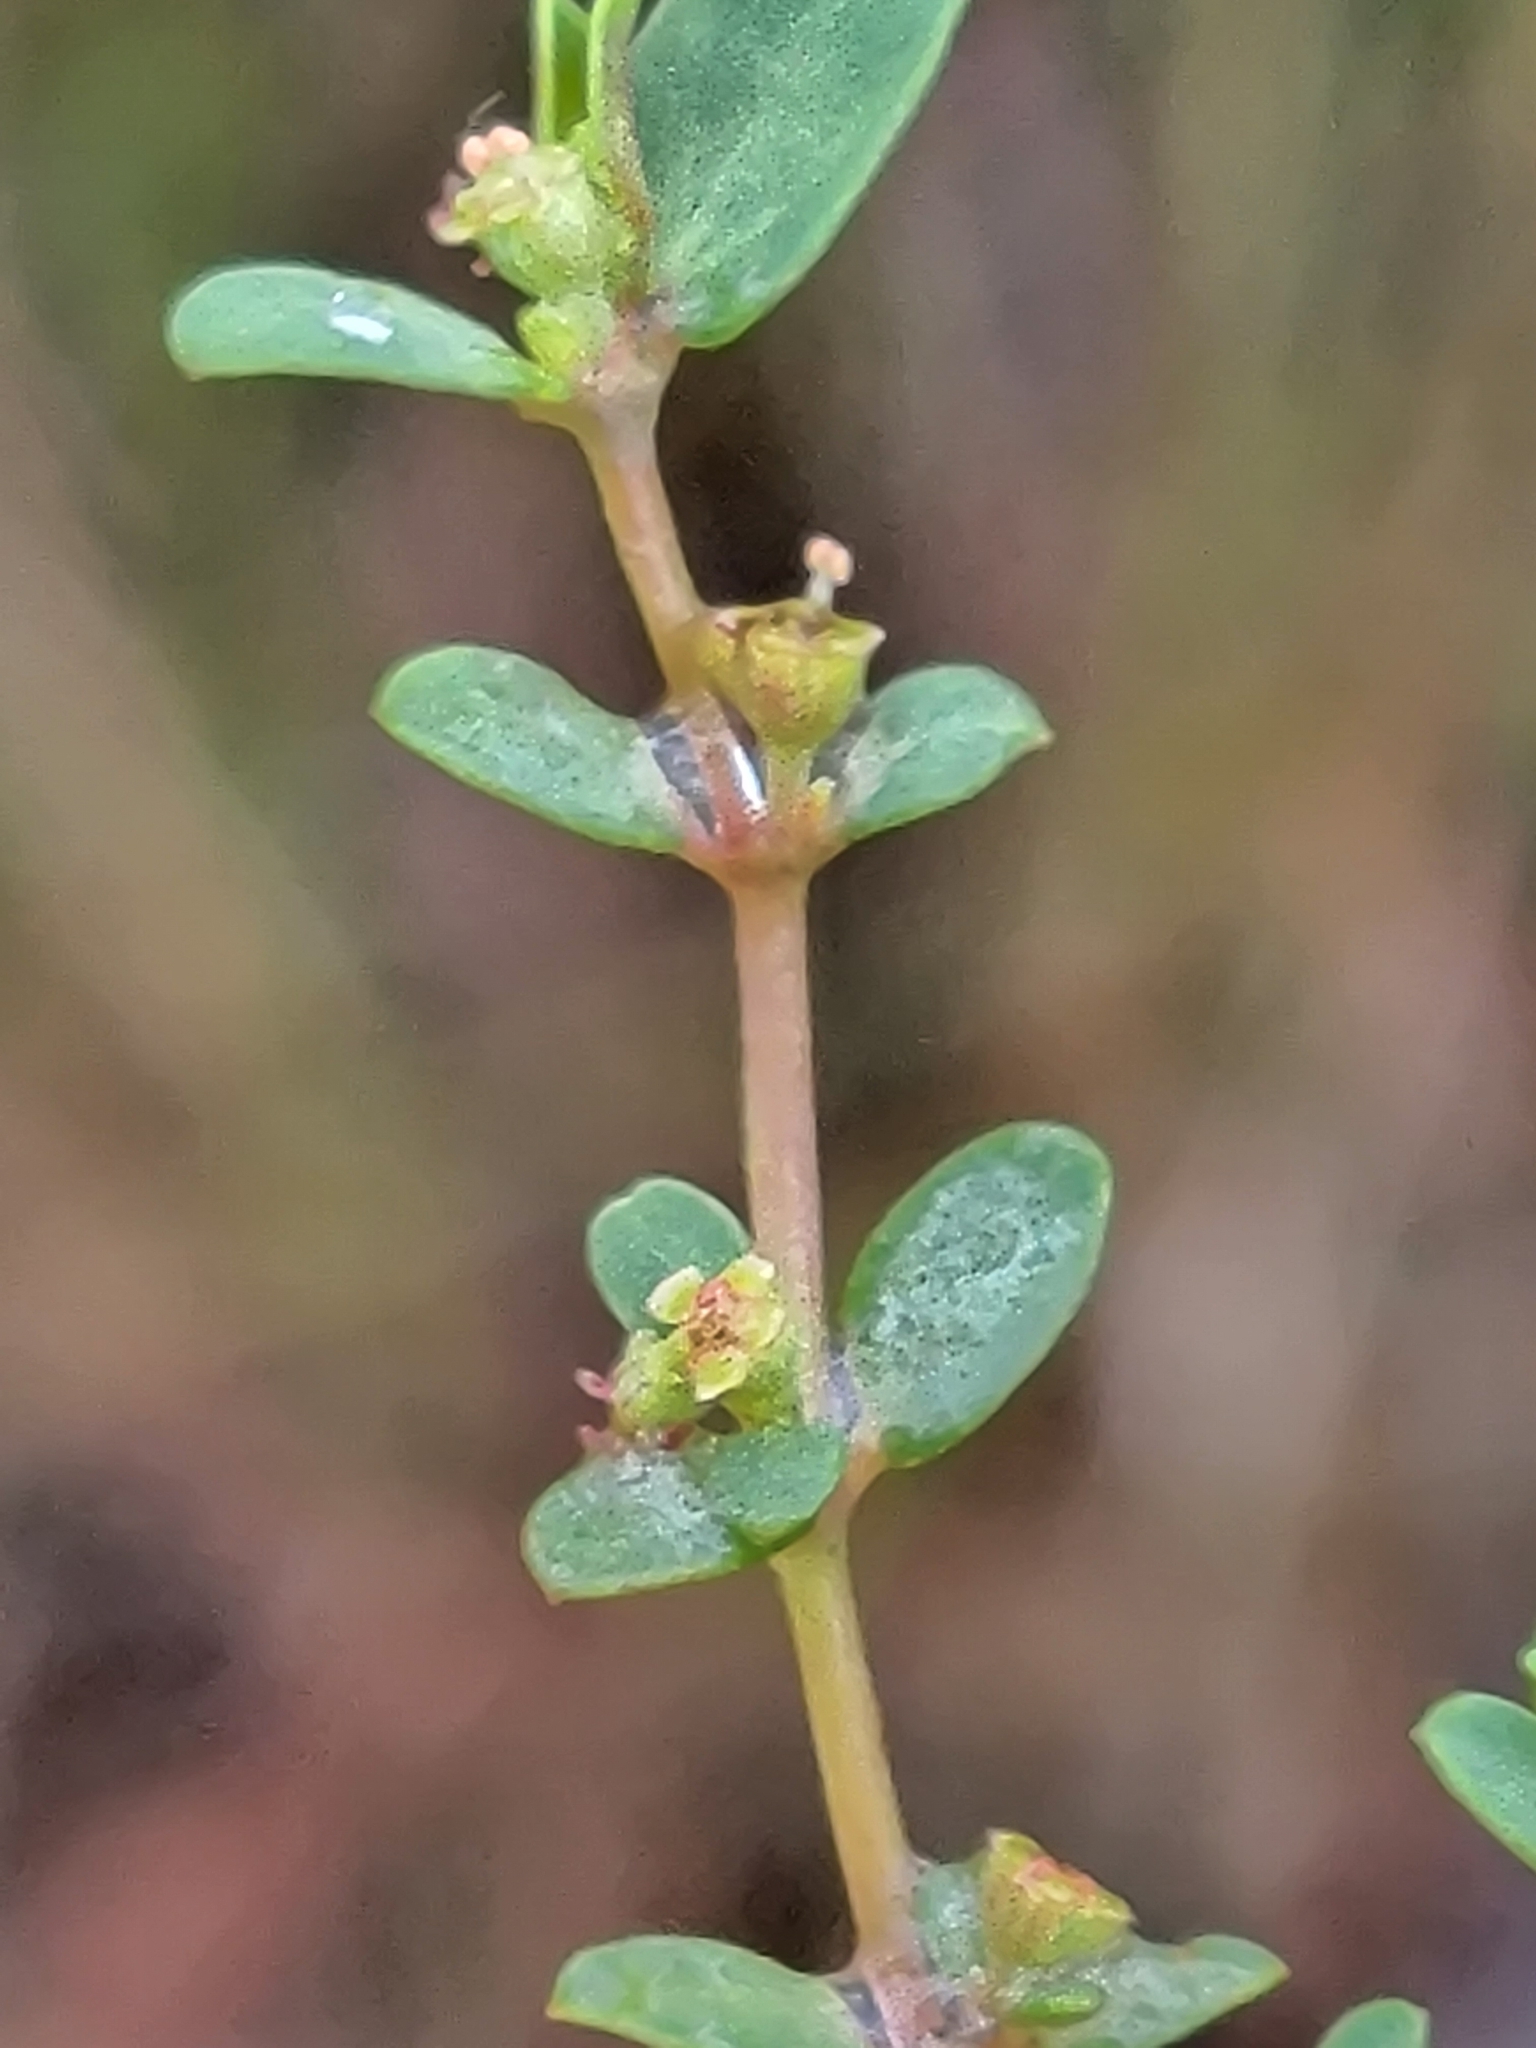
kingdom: Plantae
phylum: Tracheophyta
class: Magnoliopsida
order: Malpighiales
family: Euphorbiaceae
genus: Euphorbia
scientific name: Euphorbia porteriana
